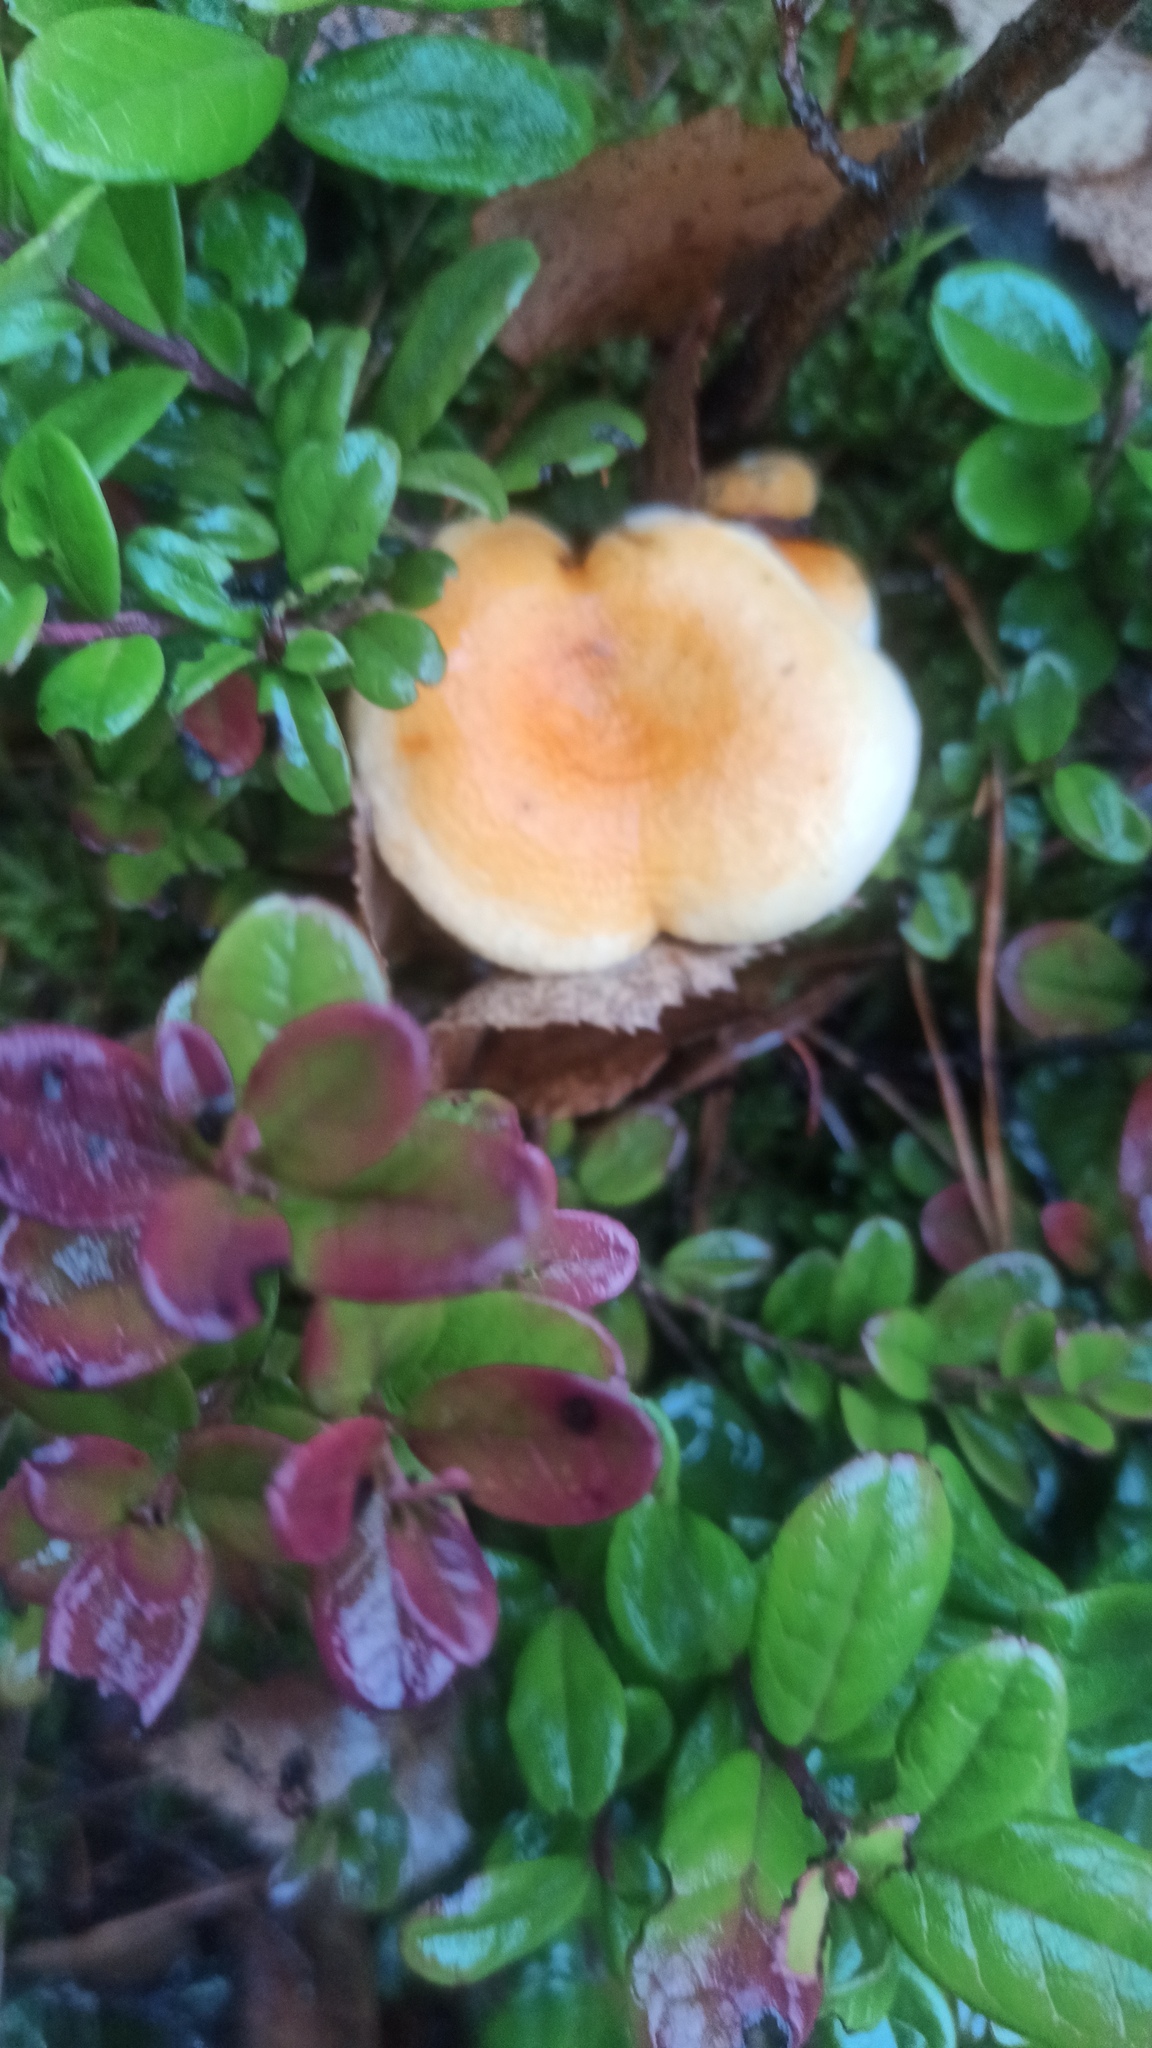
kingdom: Fungi
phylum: Basidiomycota
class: Agaricomycetes
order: Boletales
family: Hygrophoropsidaceae
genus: Hygrophoropsis
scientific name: Hygrophoropsis aurantiaca
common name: False chanterelle
